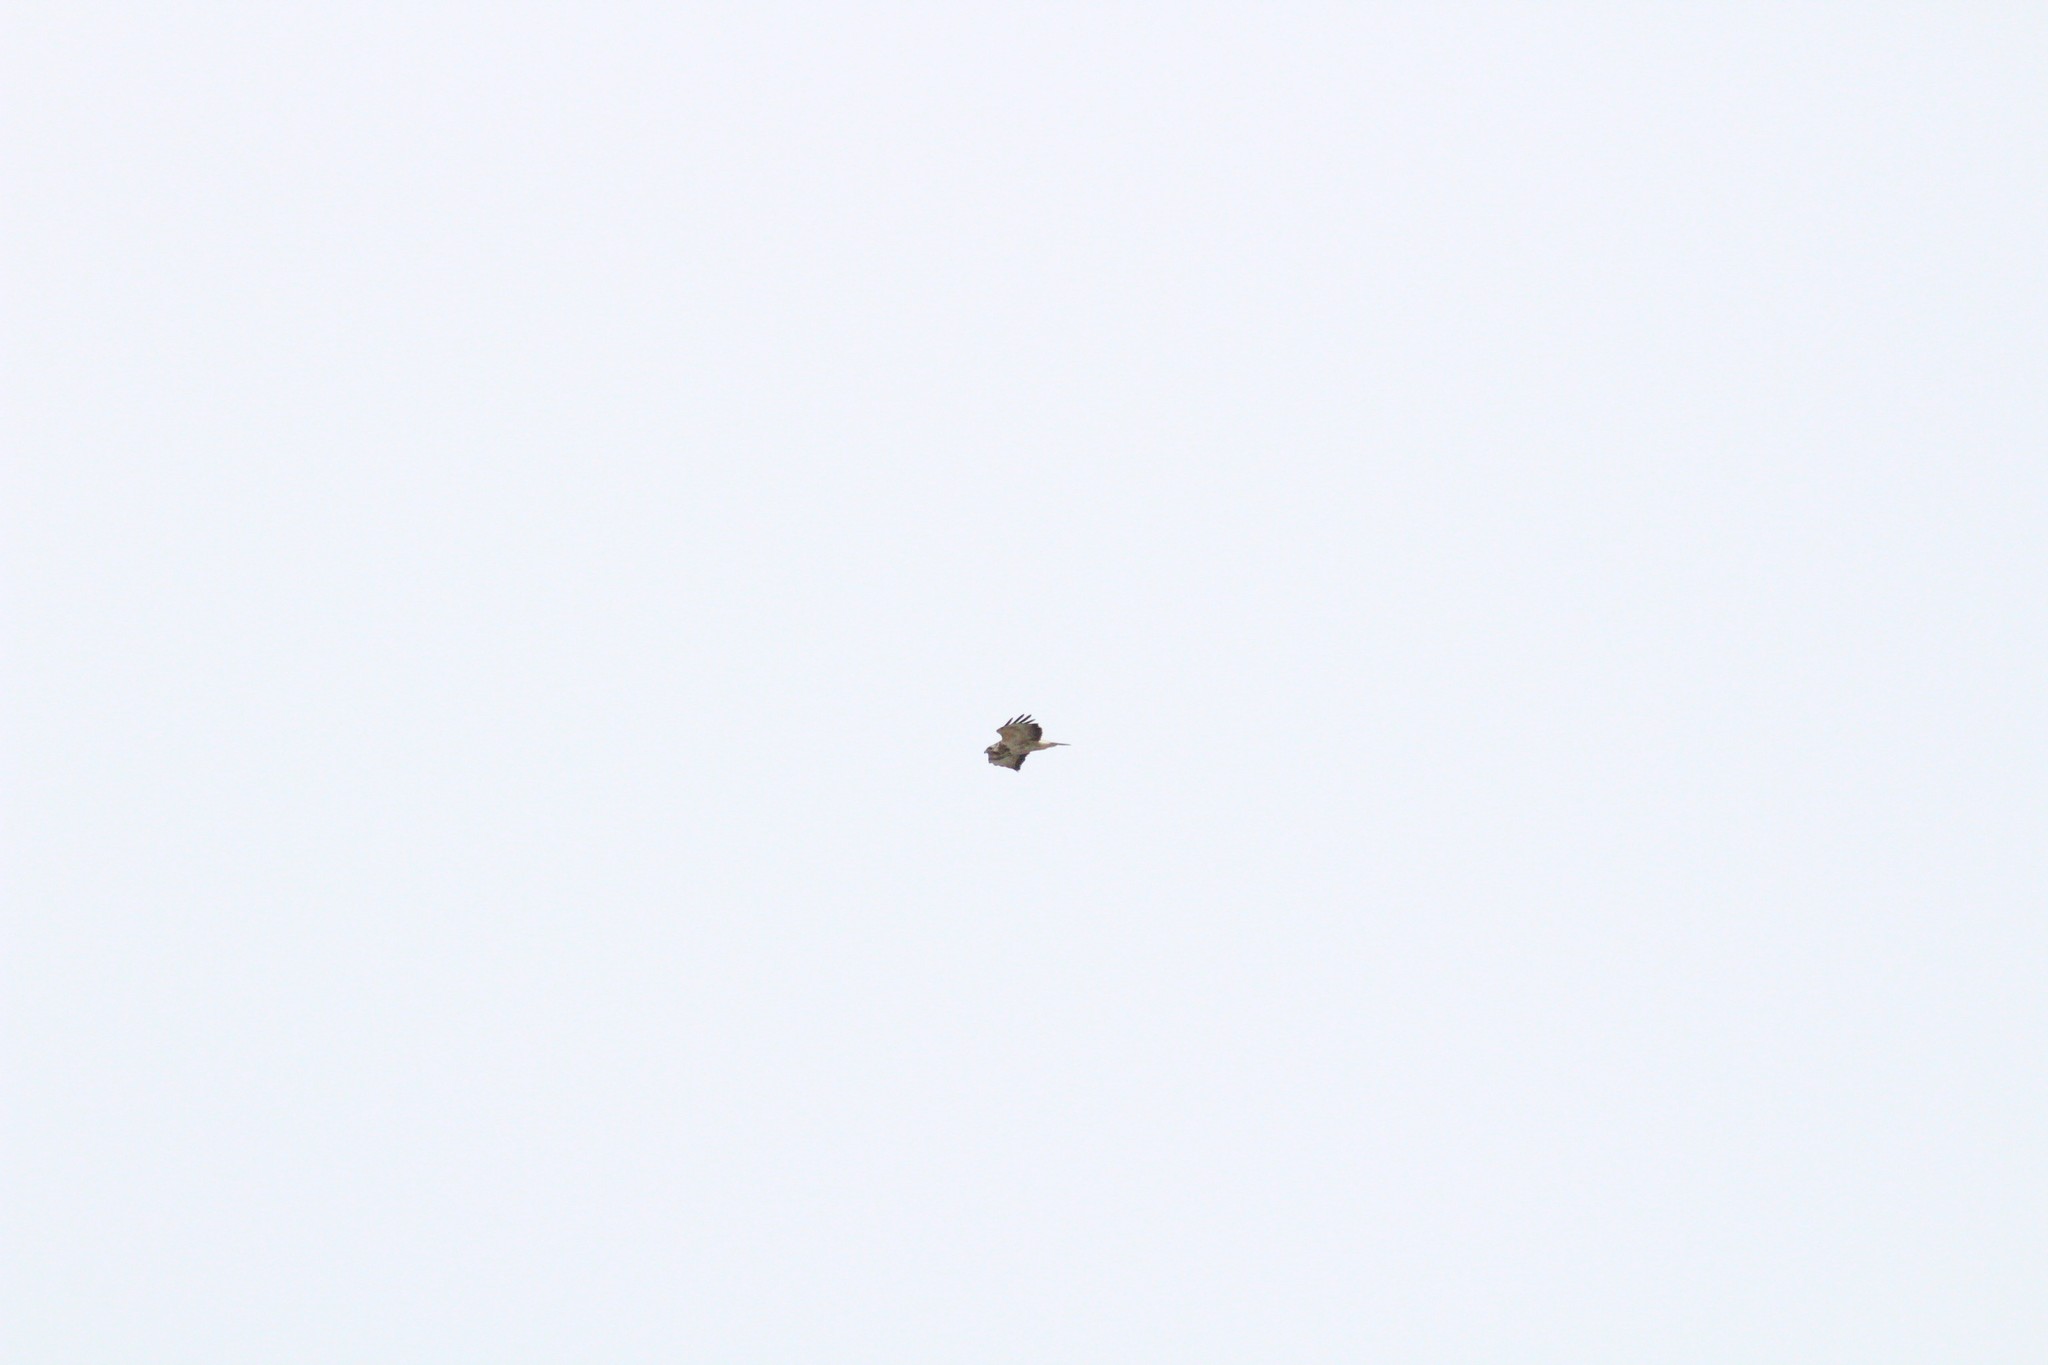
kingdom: Animalia
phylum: Chordata
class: Aves
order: Accipitriformes
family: Accipitridae
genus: Buteo
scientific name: Buteo buteo
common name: Common buzzard
